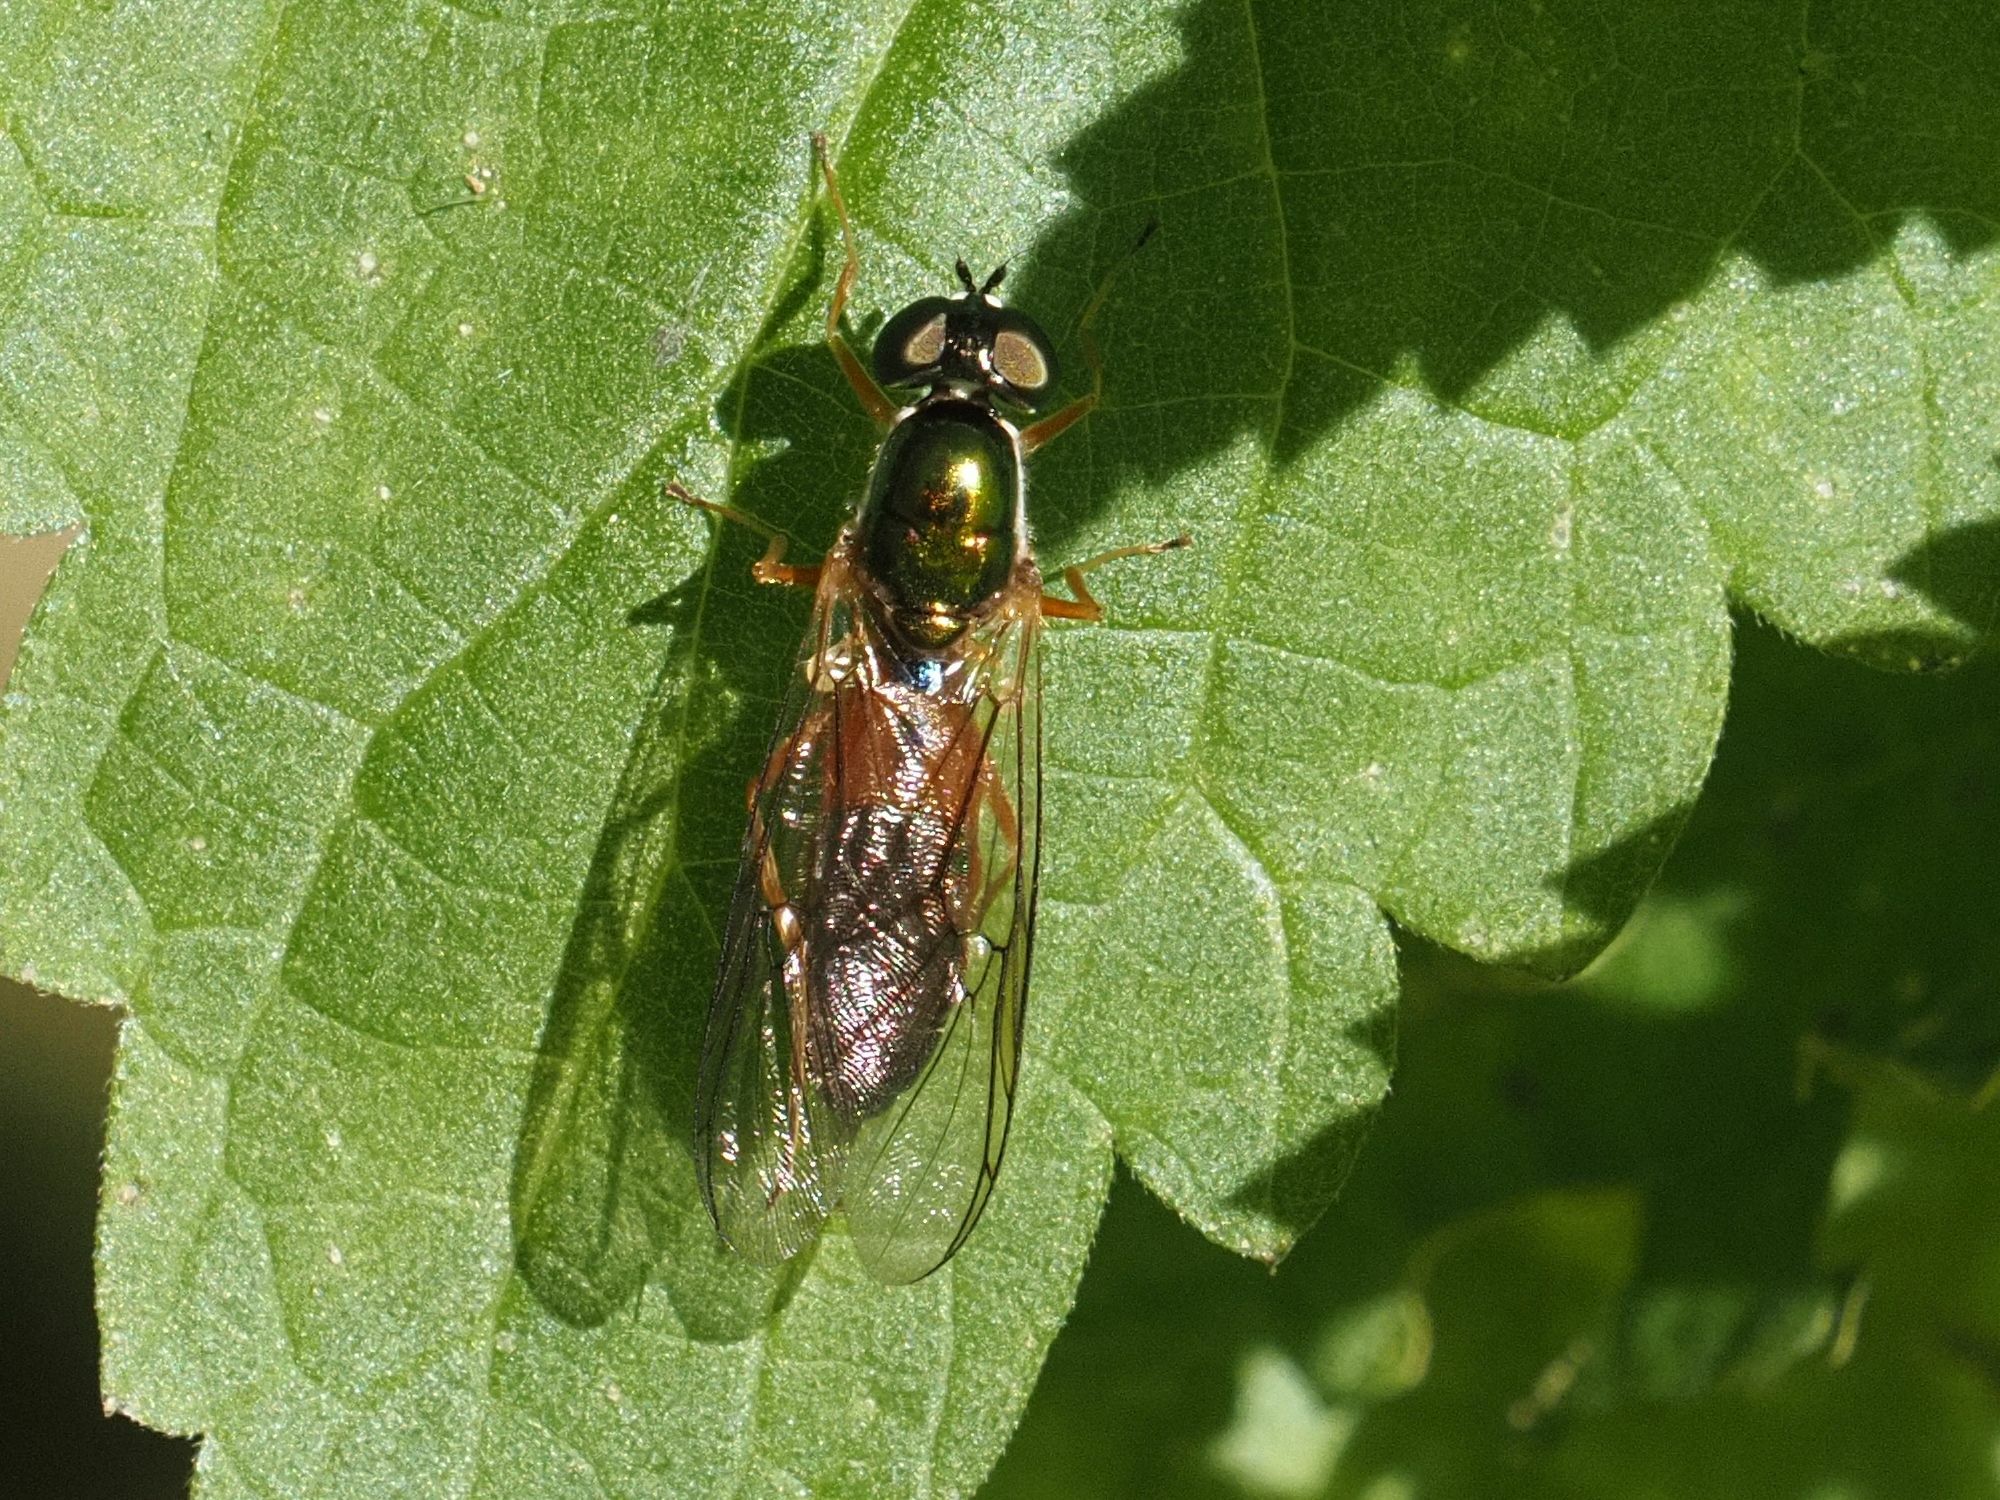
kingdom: Animalia
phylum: Arthropoda
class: Insecta
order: Diptera
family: Stratiomyidae
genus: Sargus
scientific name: Sargus bipunctatus
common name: Twin-spot centurion
